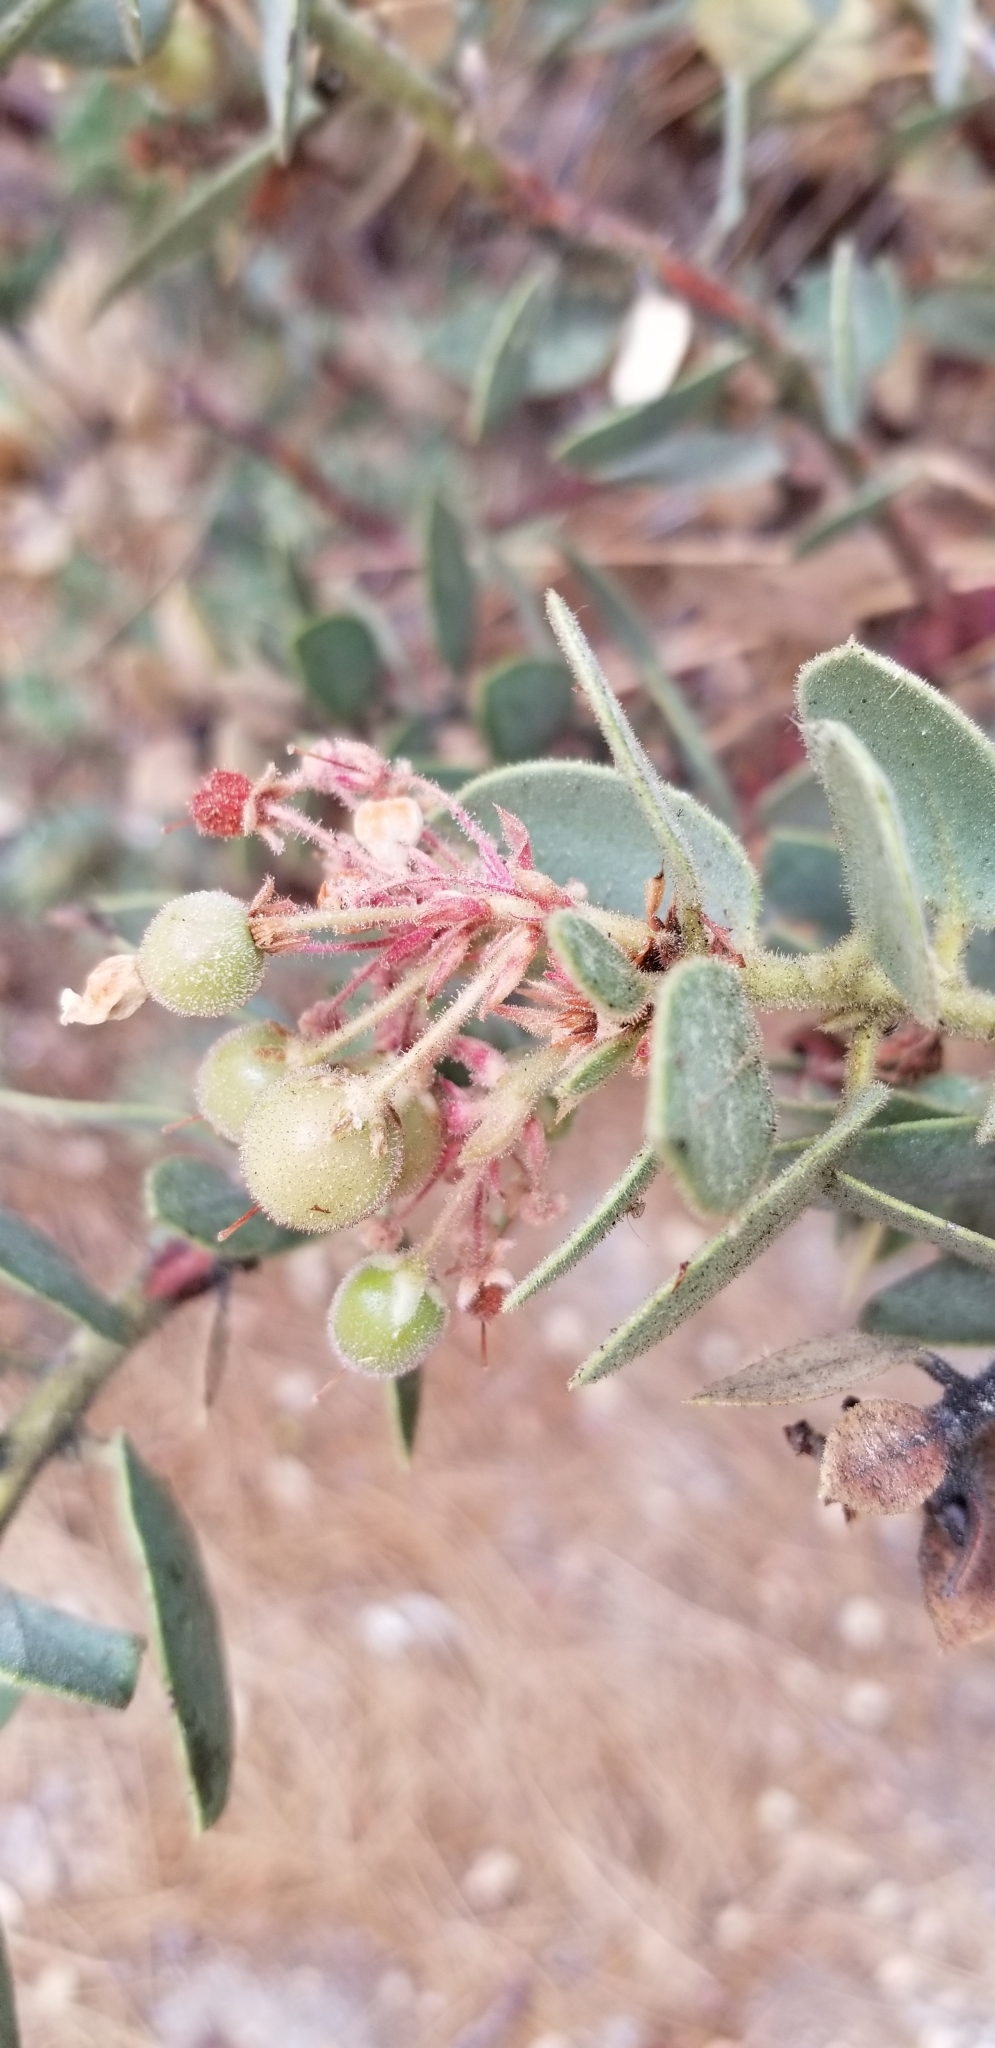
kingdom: Plantae
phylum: Tracheophyta
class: Magnoliopsida
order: Ericales
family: Ericaceae
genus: Arctostaphylos
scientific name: Arctostaphylos pringlei
